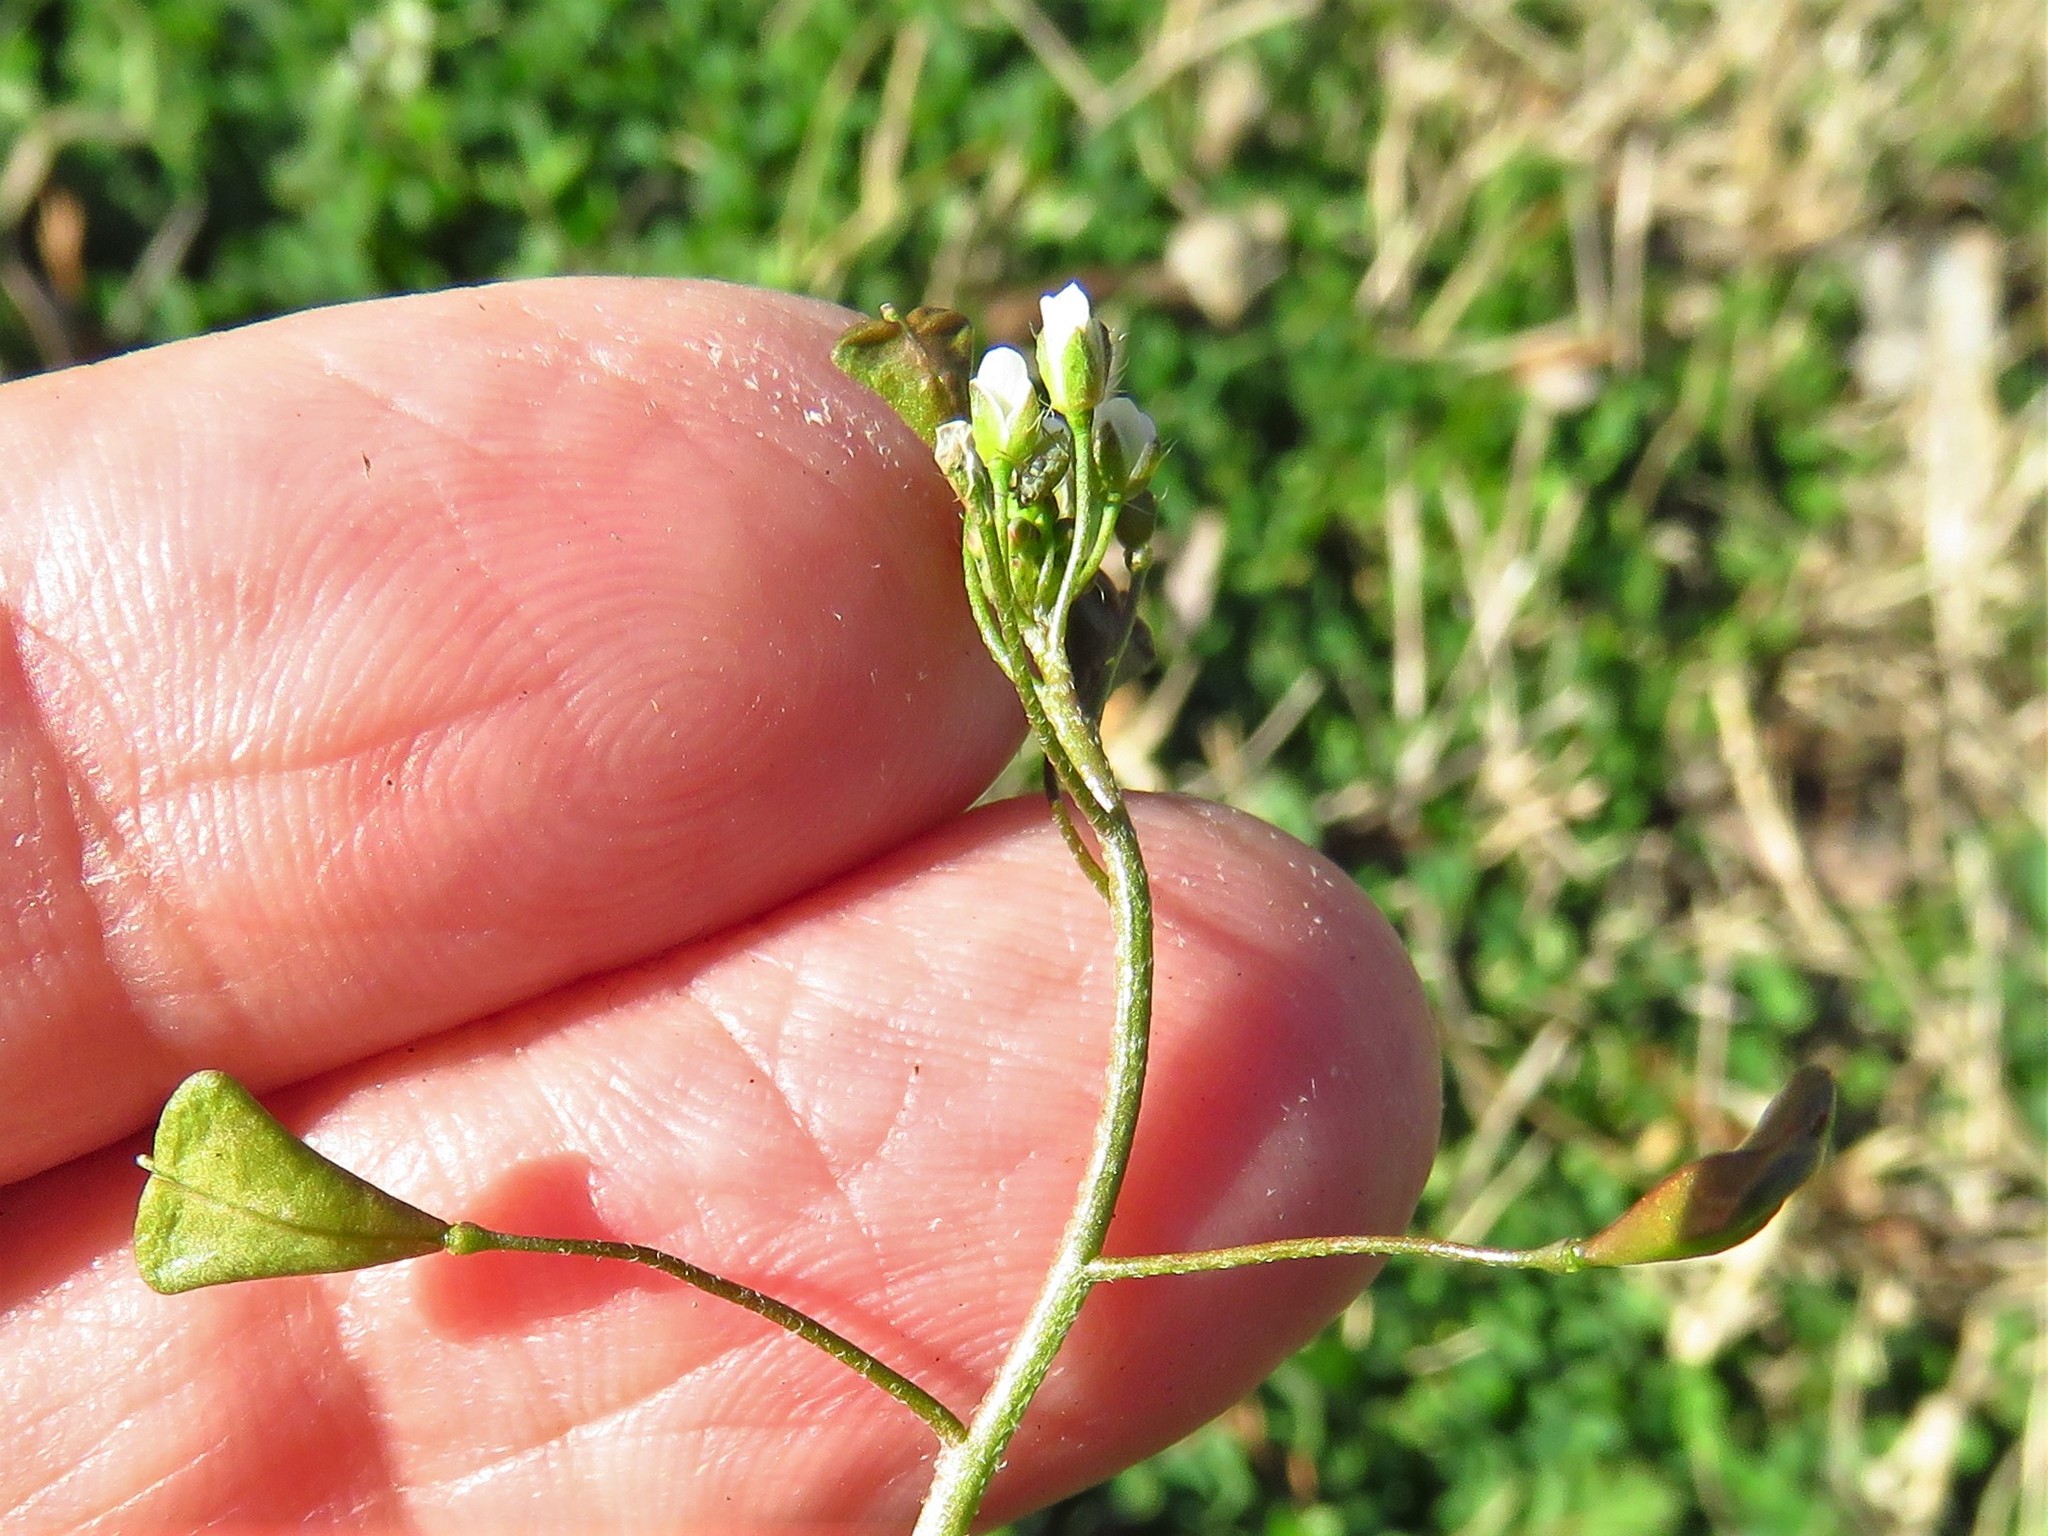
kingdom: Plantae
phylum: Tracheophyta
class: Magnoliopsida
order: Brassicales
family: Brassicaceae
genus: Capsella
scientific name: Capsella bursa-pastoris
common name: Shepherd's purse
